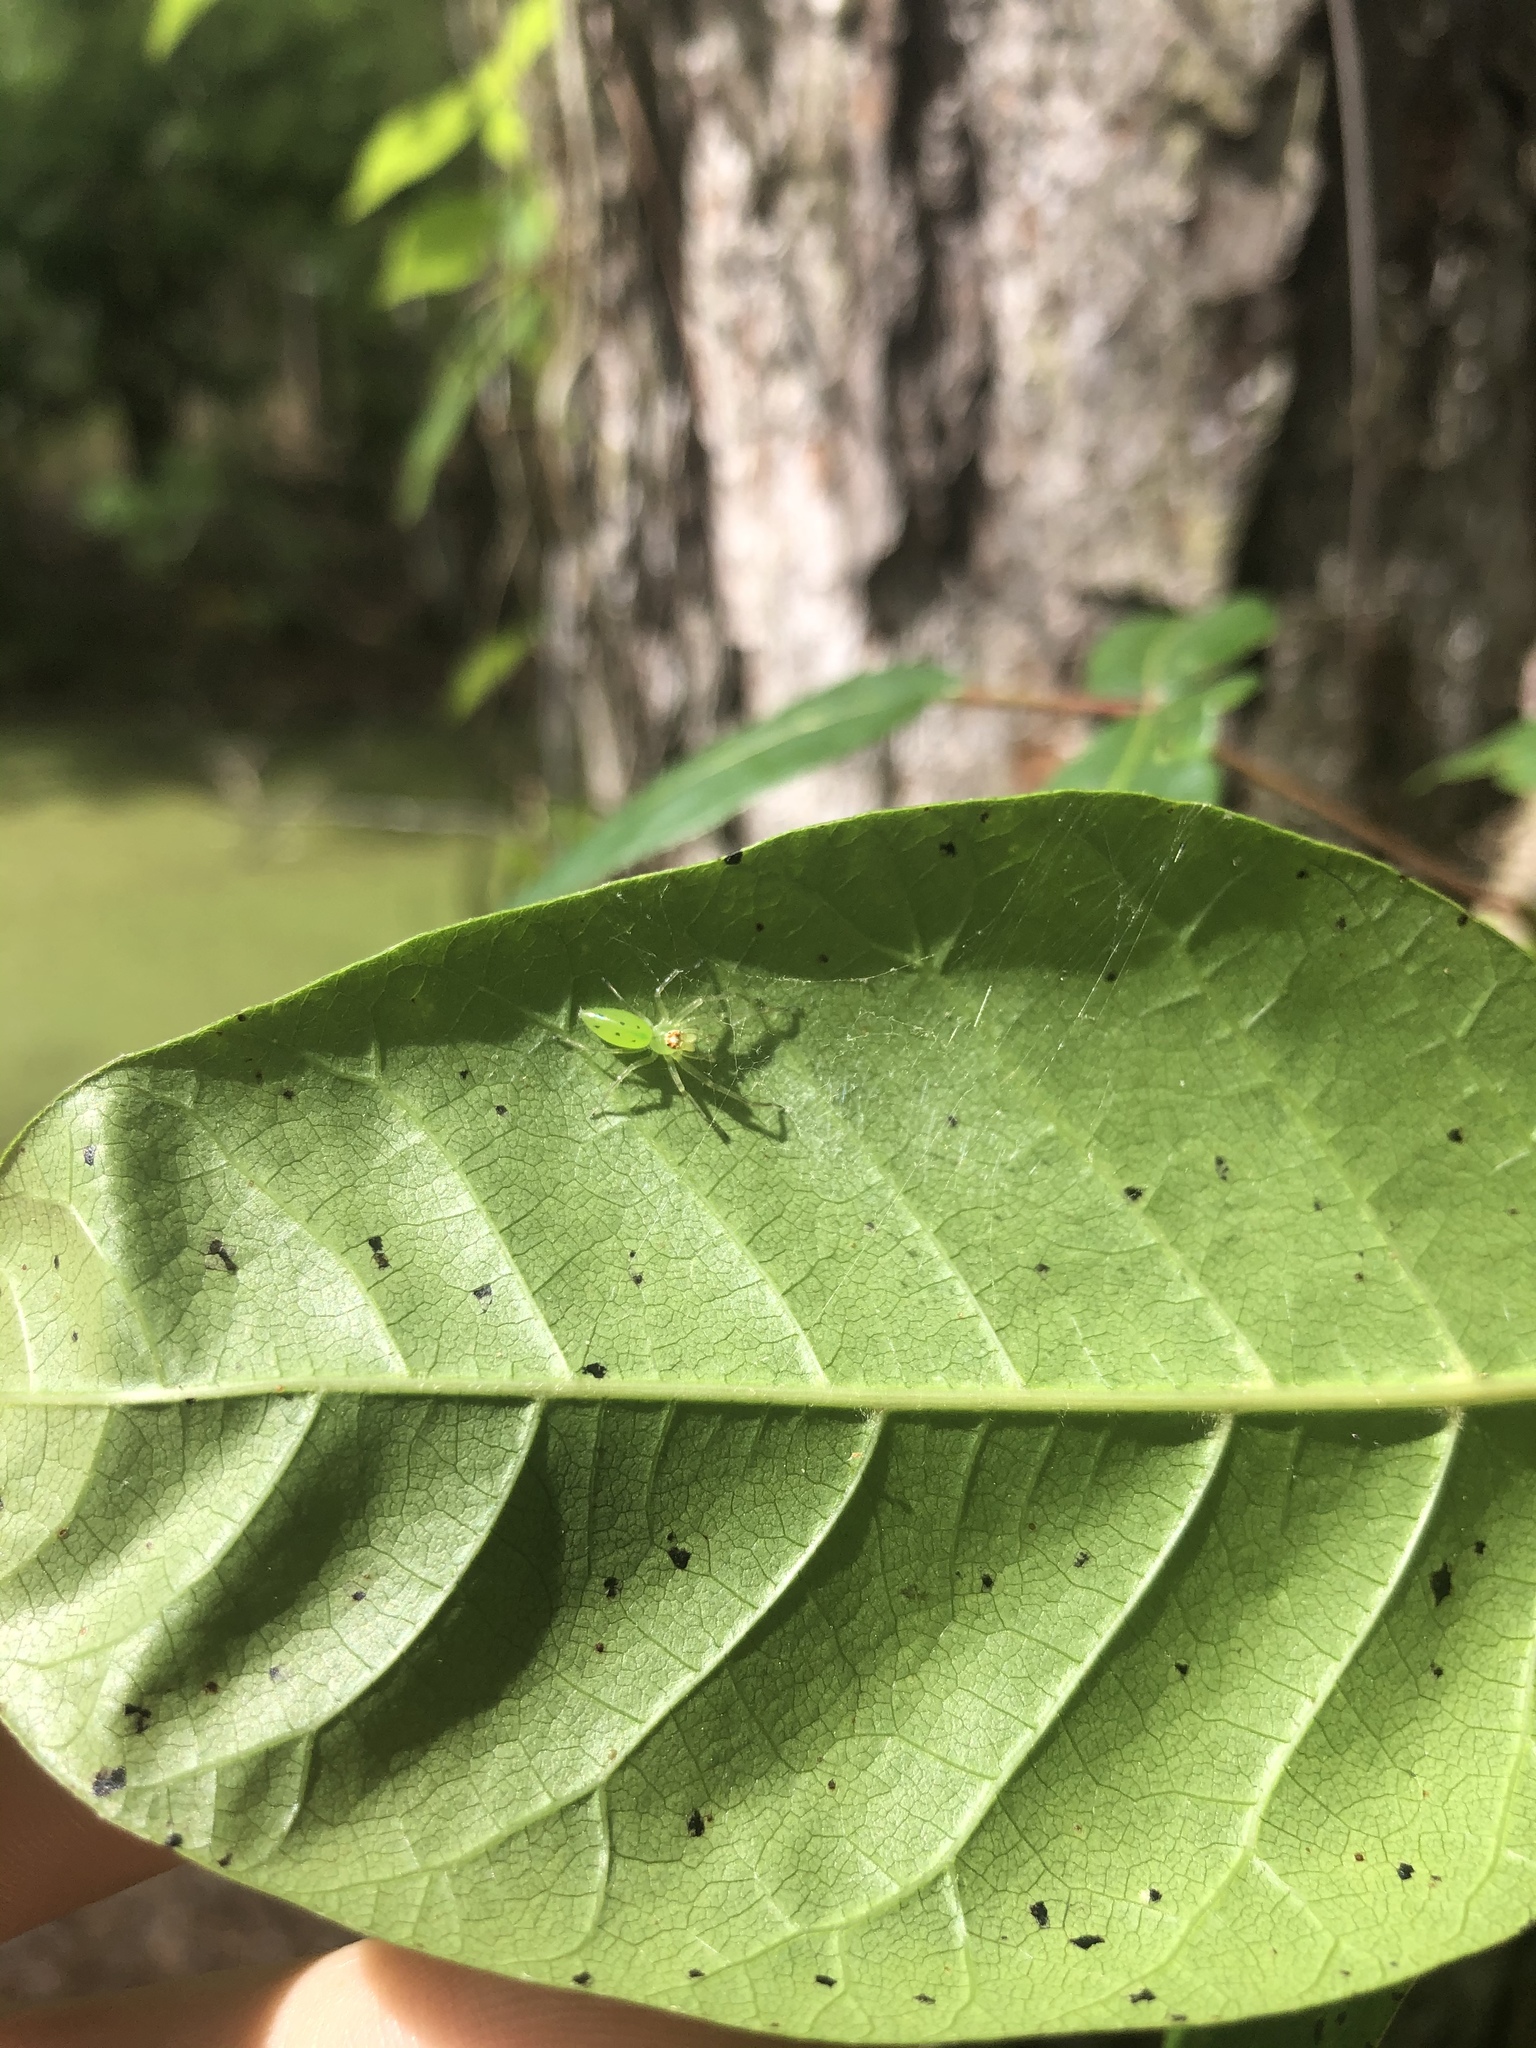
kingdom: Animalia
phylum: Arthropoda
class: Arachnida
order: Araneae
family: Salticidae
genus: Lyssomanes
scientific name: Lyssomanes viridis
